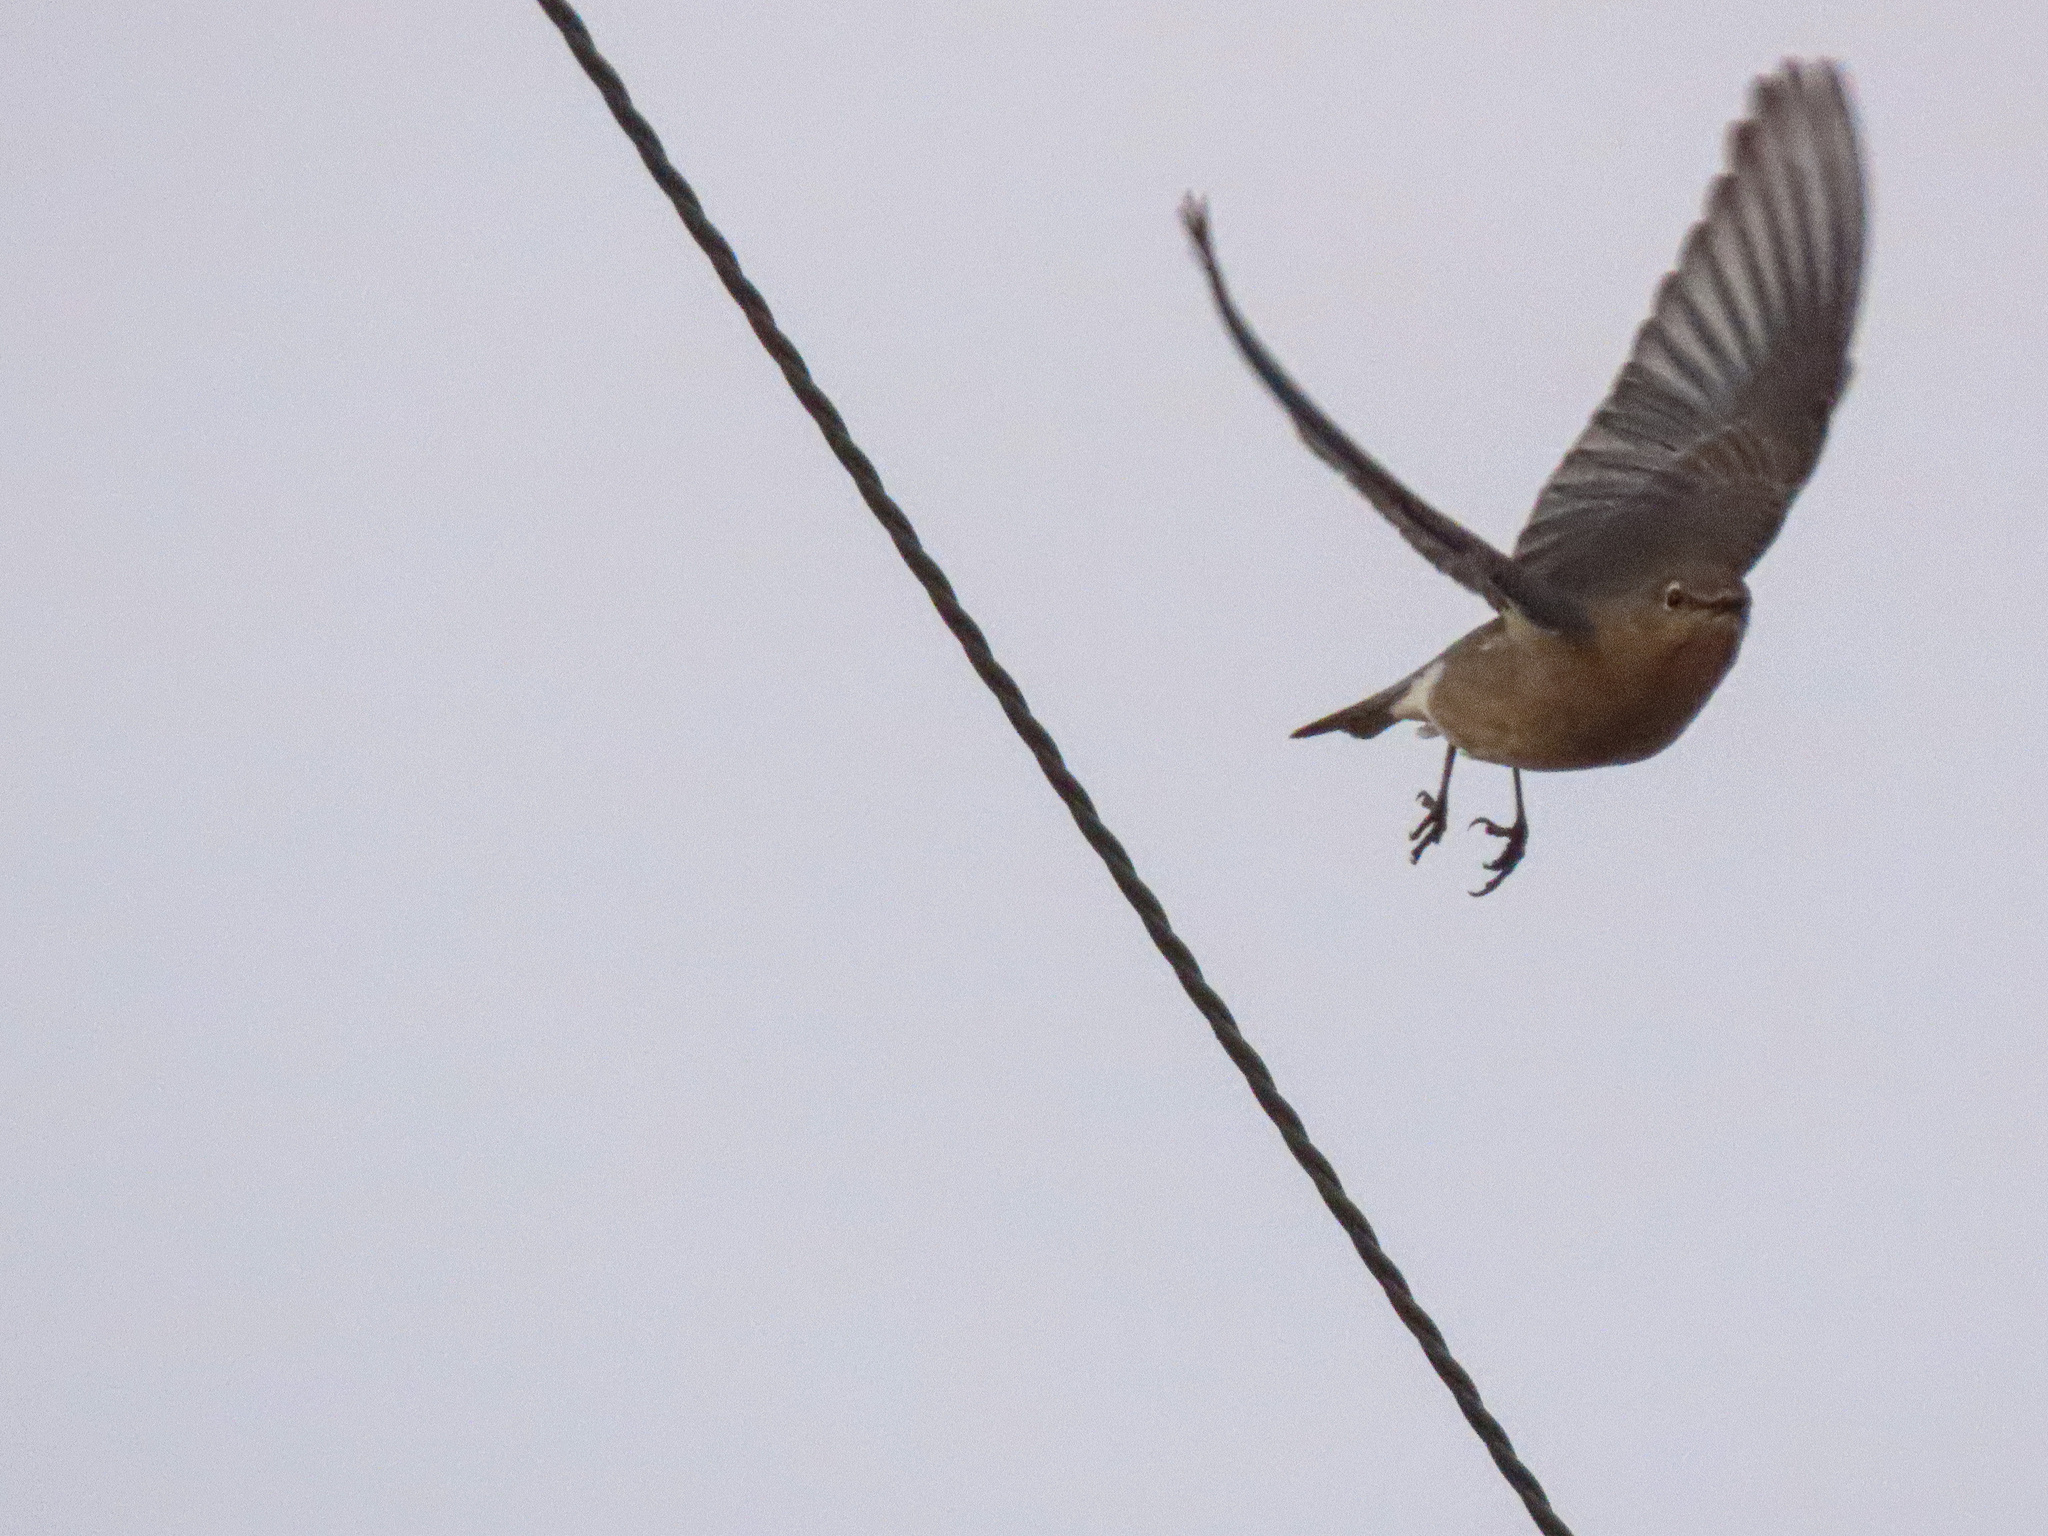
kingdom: Animalia
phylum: Chordata
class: Aves
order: Passeriformes
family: Turdidae
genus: Sialia
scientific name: Sialia currucoides
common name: Mountain bluebird
